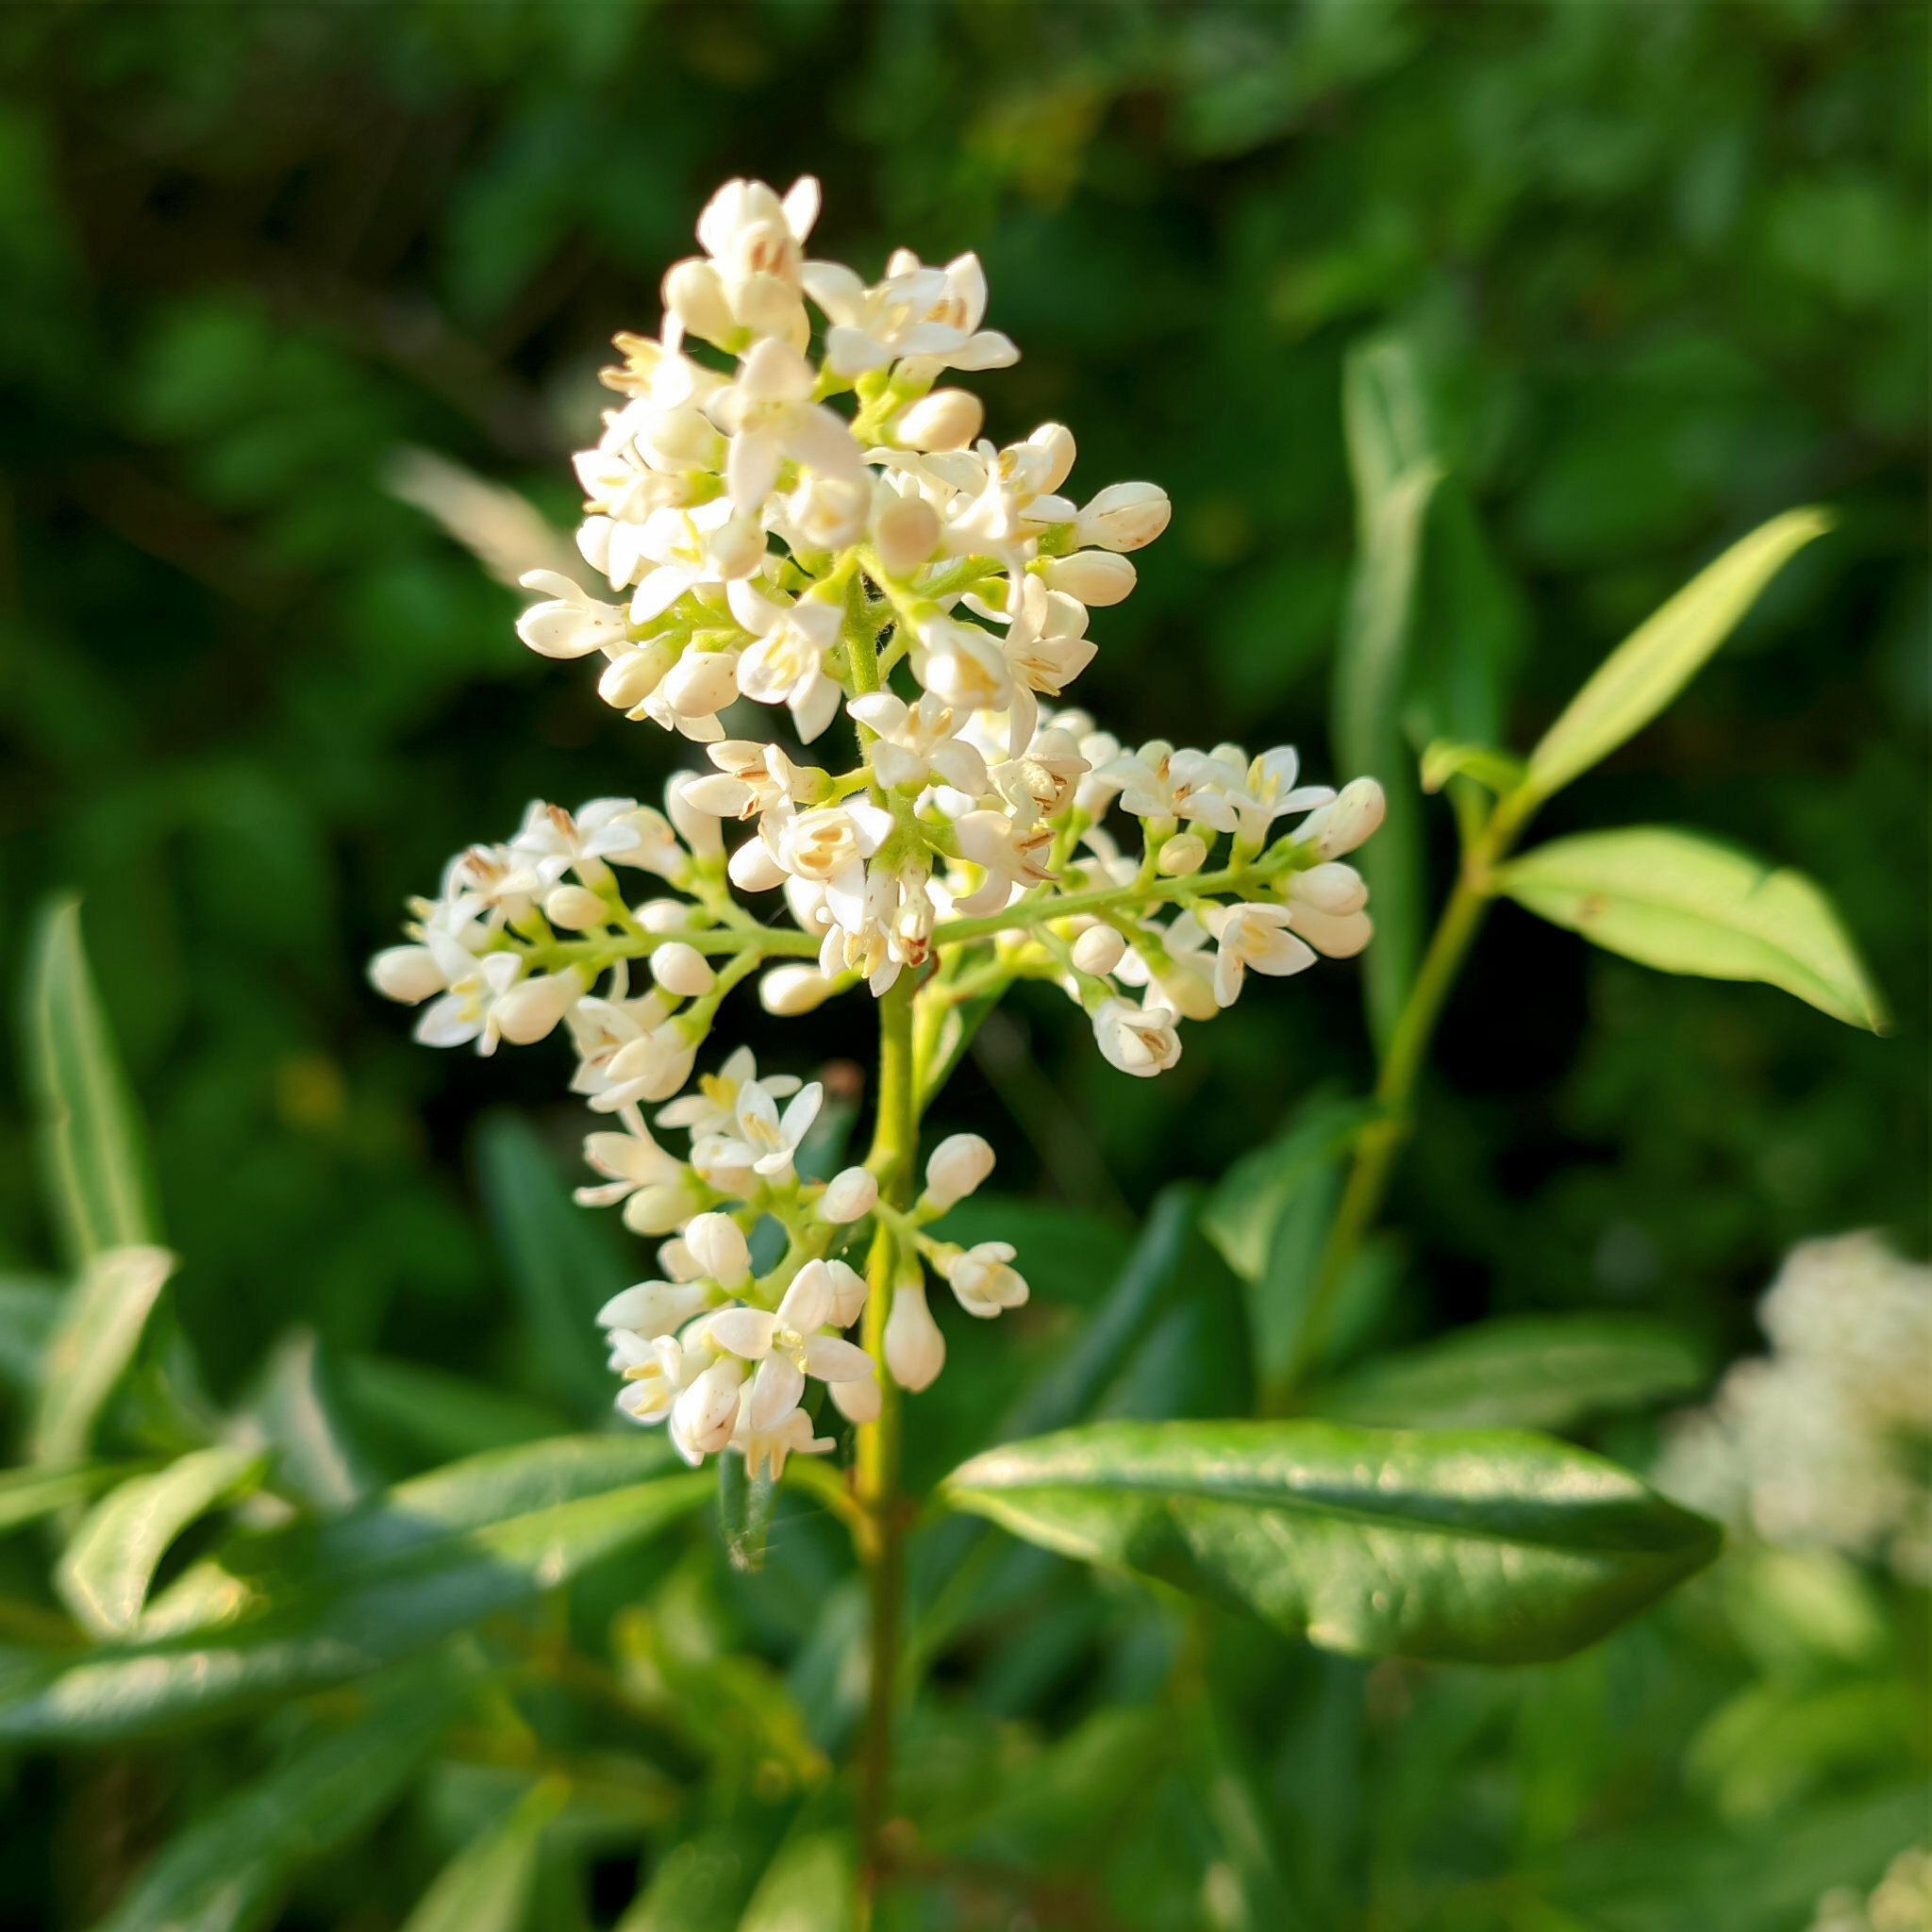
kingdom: Plantae
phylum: Tracheophyta
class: Magnoliopsida
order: Lamiales
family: Oleaceae
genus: Ligustrum
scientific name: Ligustrum vulgare
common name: Wild privet
